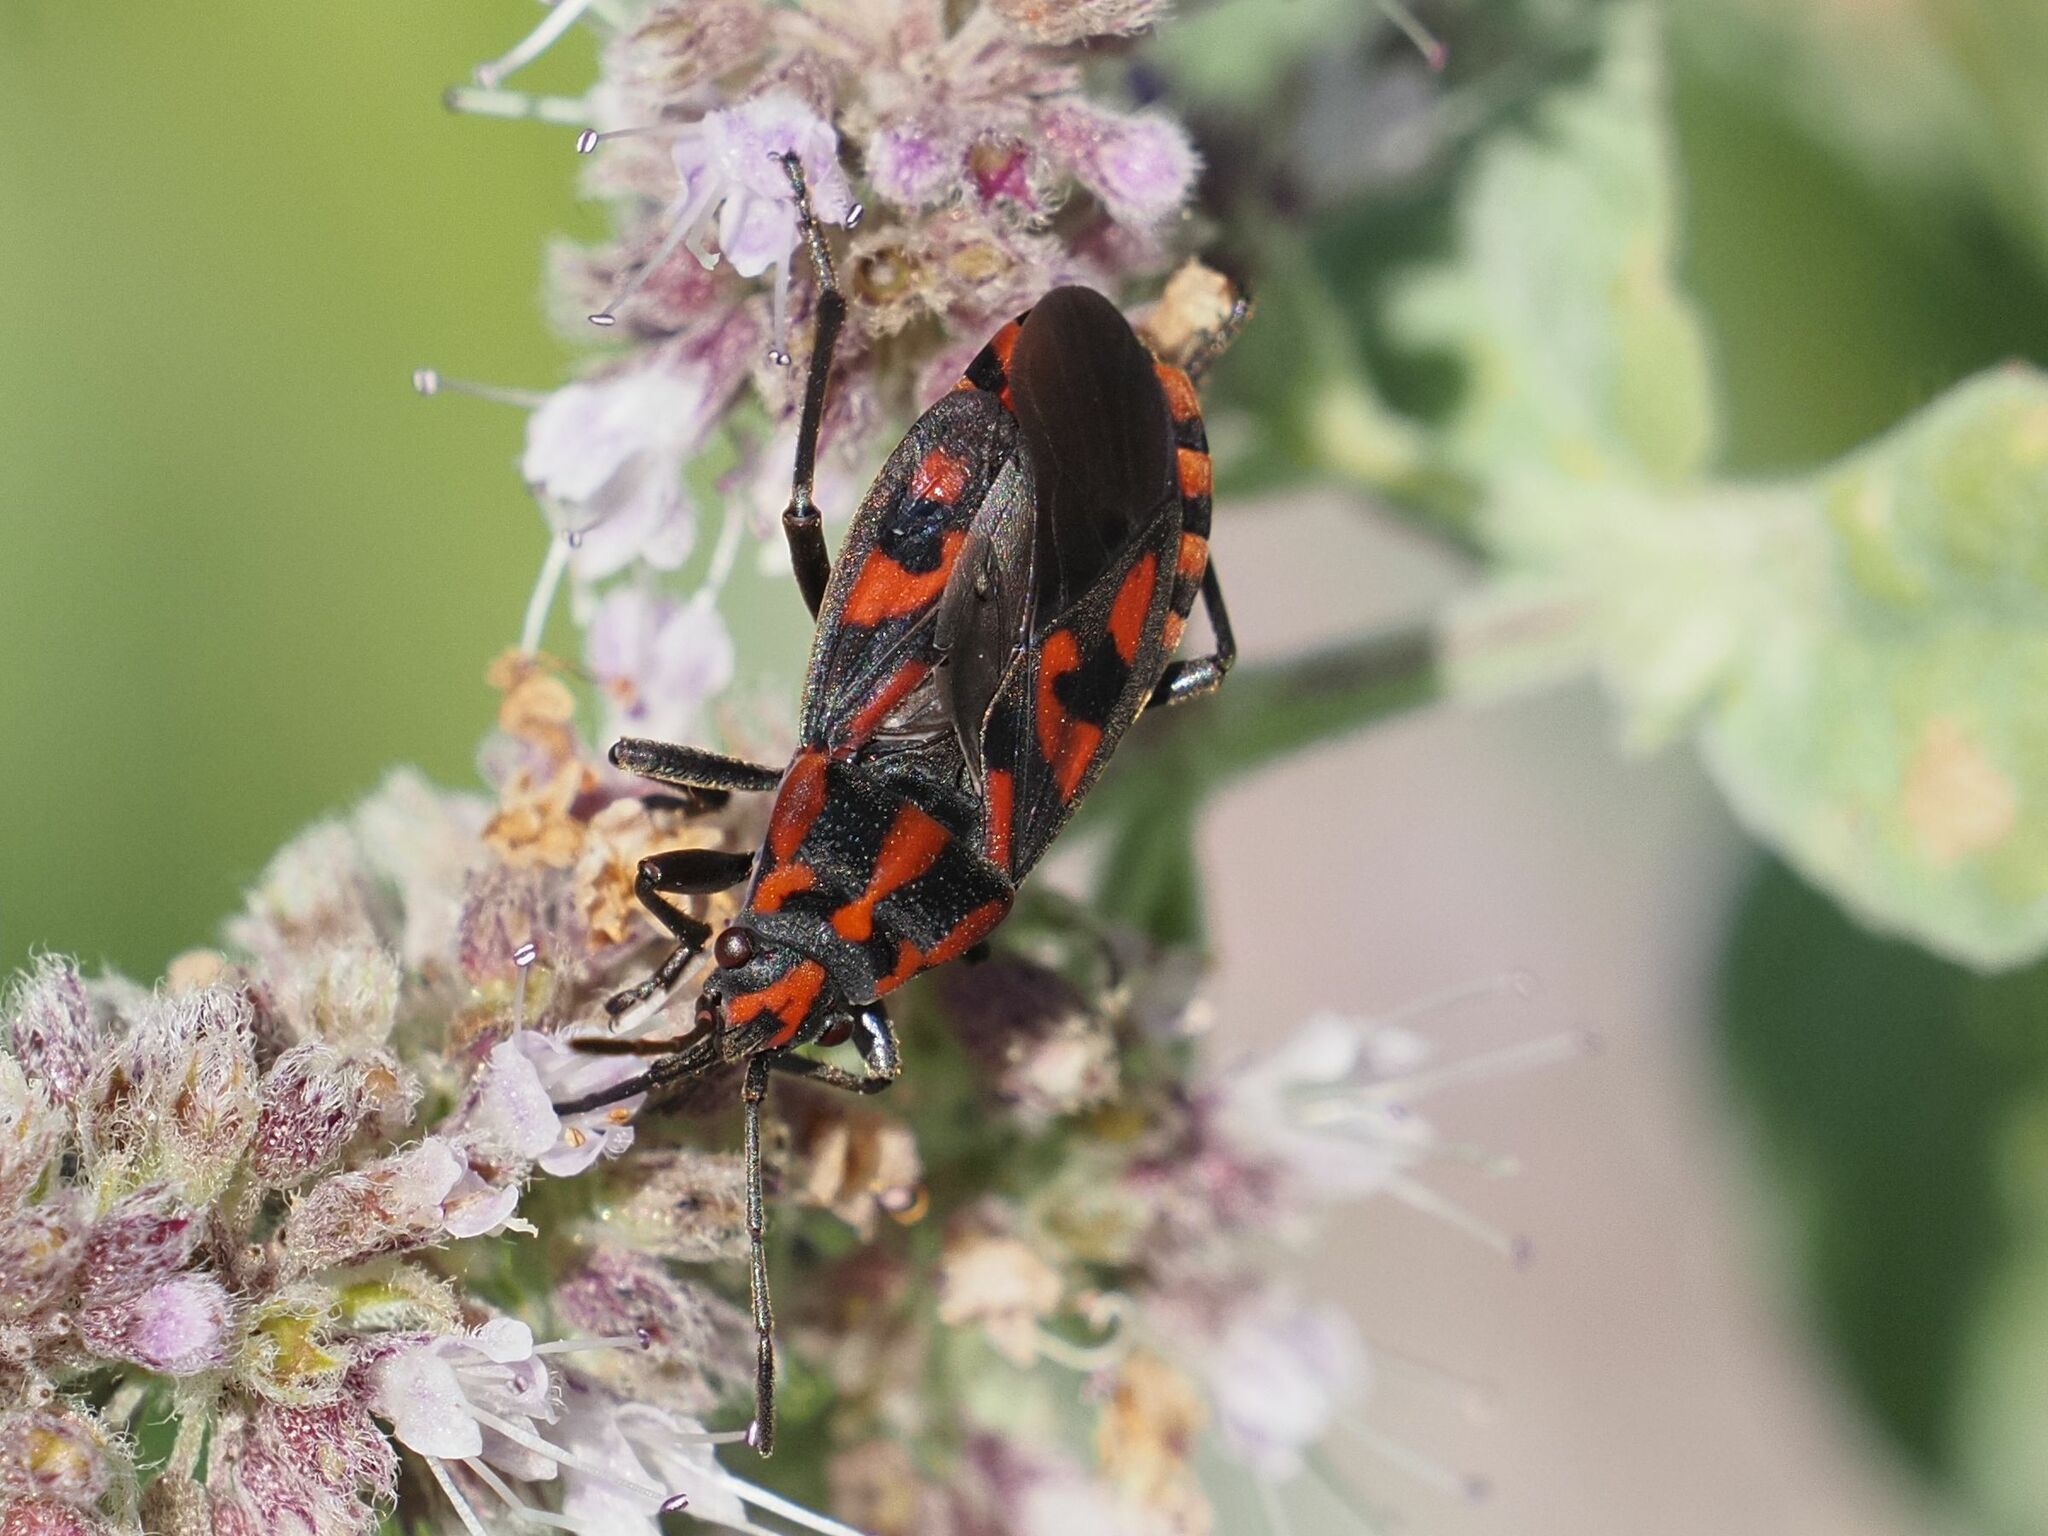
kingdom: Animalia
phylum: Arthropoda
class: Insecta
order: Hemiptera
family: Lygaeidae
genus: Spilostethus
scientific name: Spilostethus saxatilis
